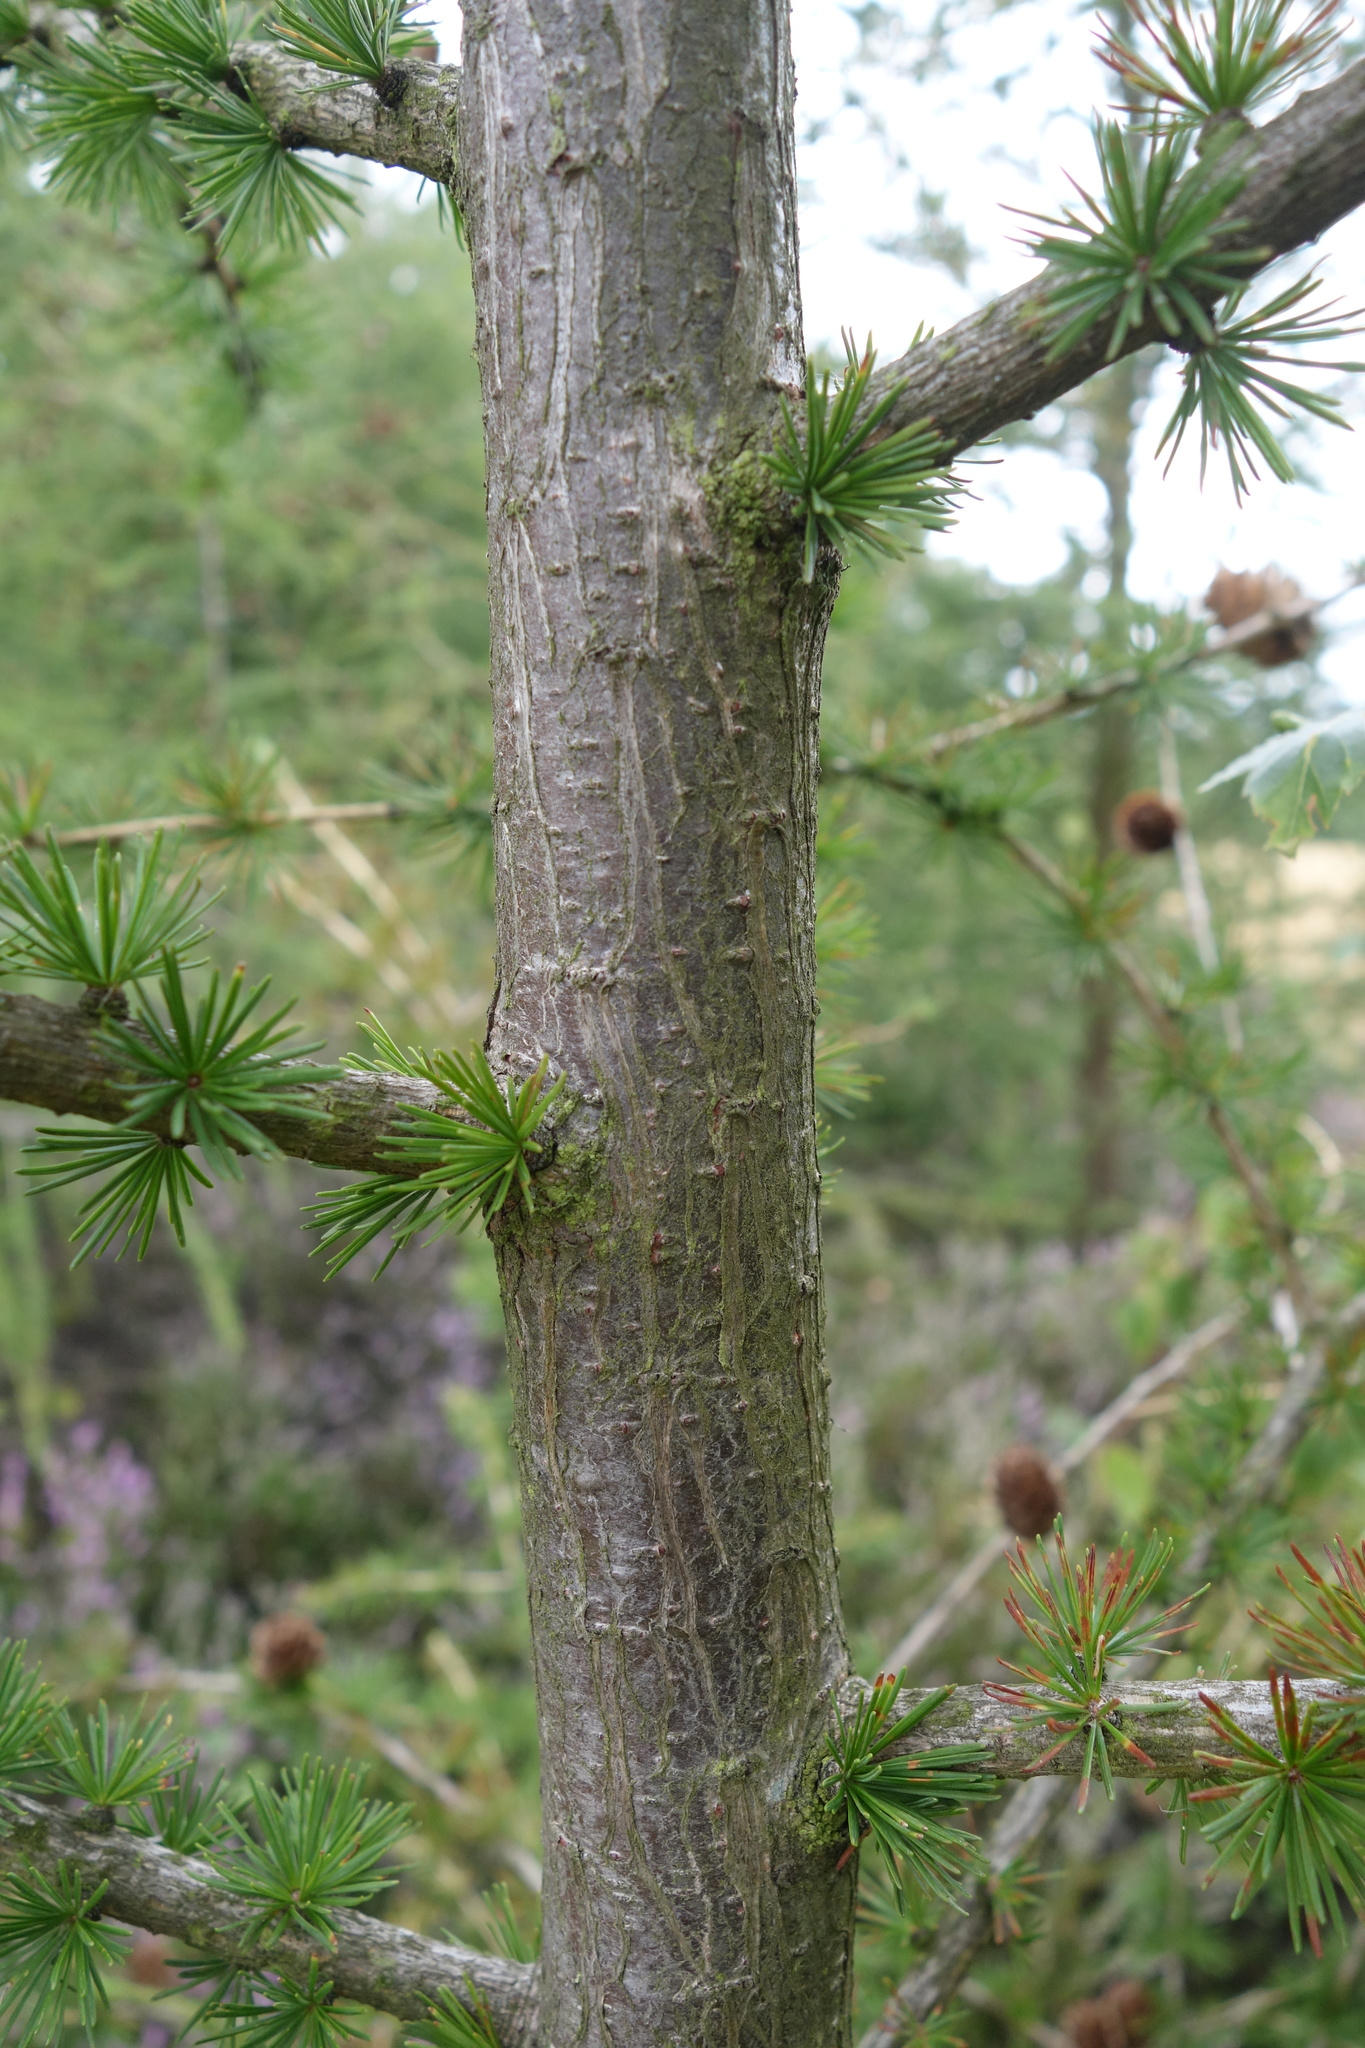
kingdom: Plantae
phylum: Tracheophyta
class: Pinopsida
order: Pinales
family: Pinaceae
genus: Larix
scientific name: Larix decidua
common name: European larch
